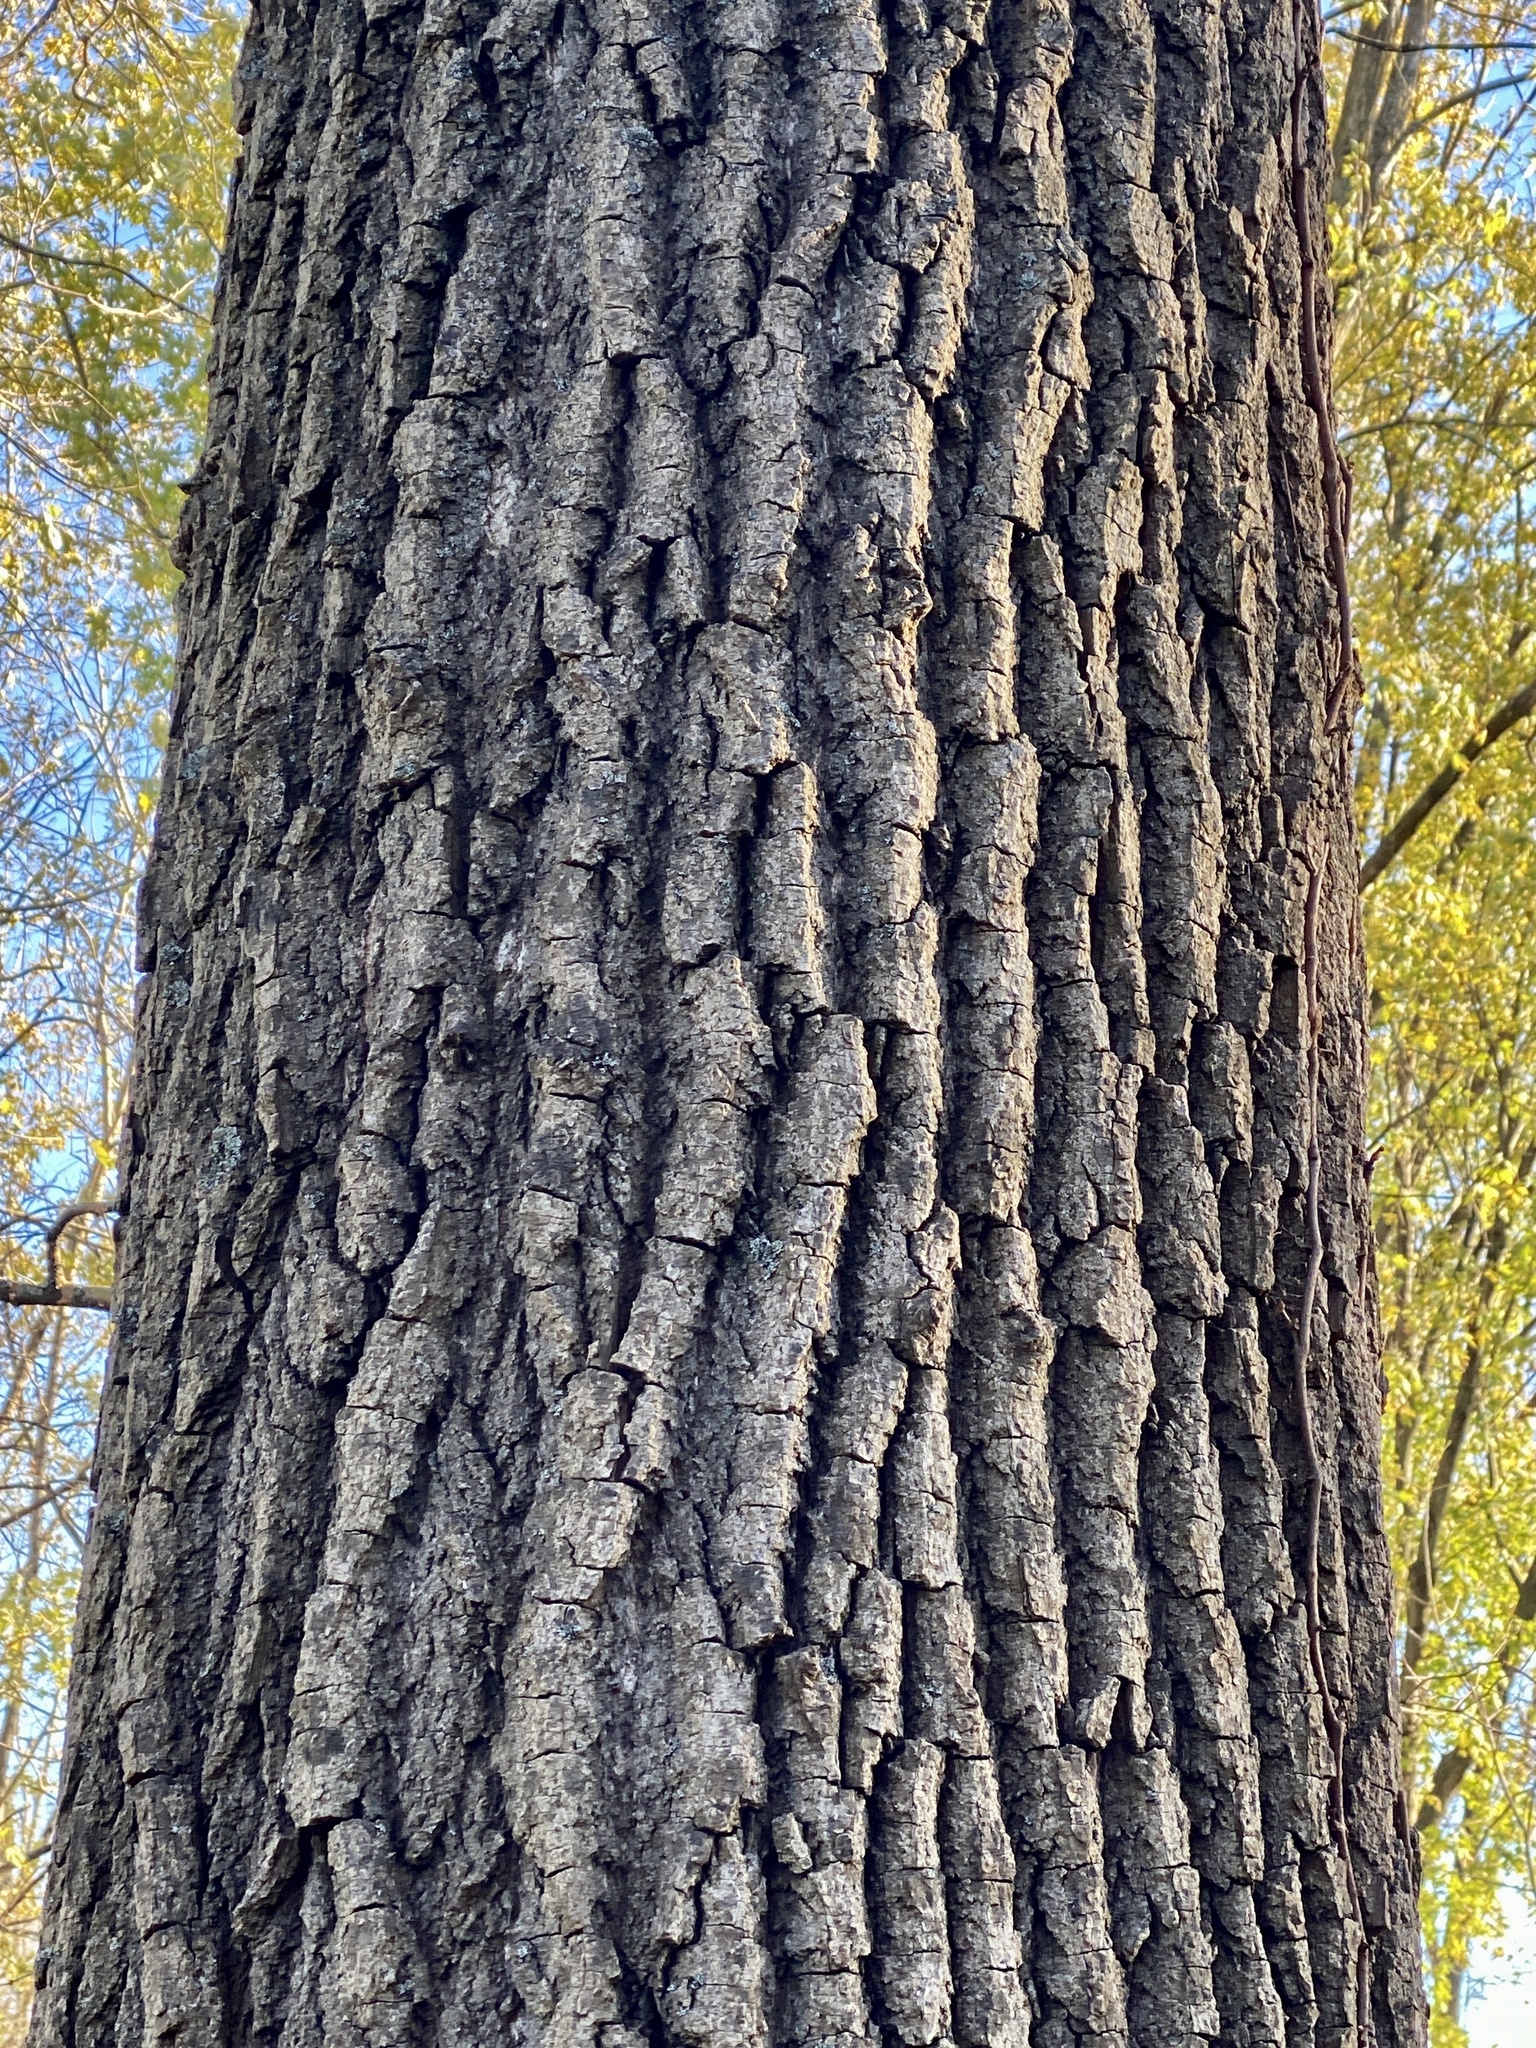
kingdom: Plantae
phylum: Tracheophyta
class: Magnoliopsida
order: Malpighiales
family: Salicaceae
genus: Populus
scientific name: Populus deltoides
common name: Eastern cottonwood
